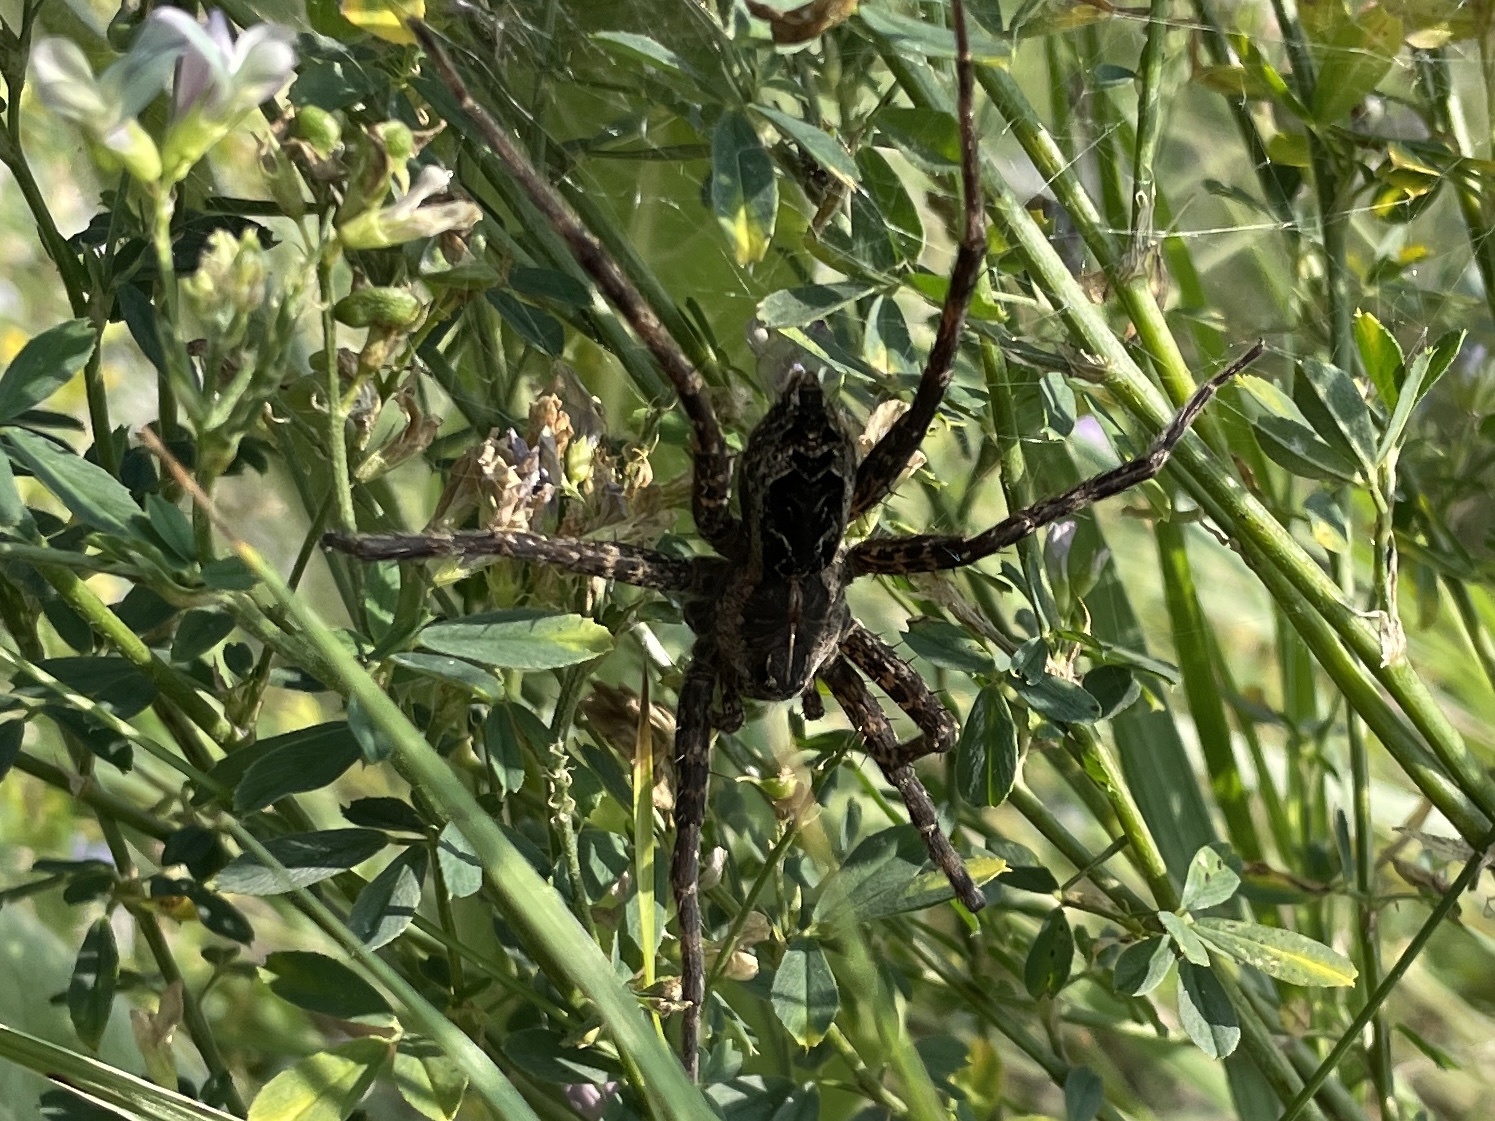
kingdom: Animalia
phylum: Arthropoda
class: Arachnida
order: Araneae
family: Pisauridae
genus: Dolomedes
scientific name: Dolomedes scriptus
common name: Striped fishing spider
